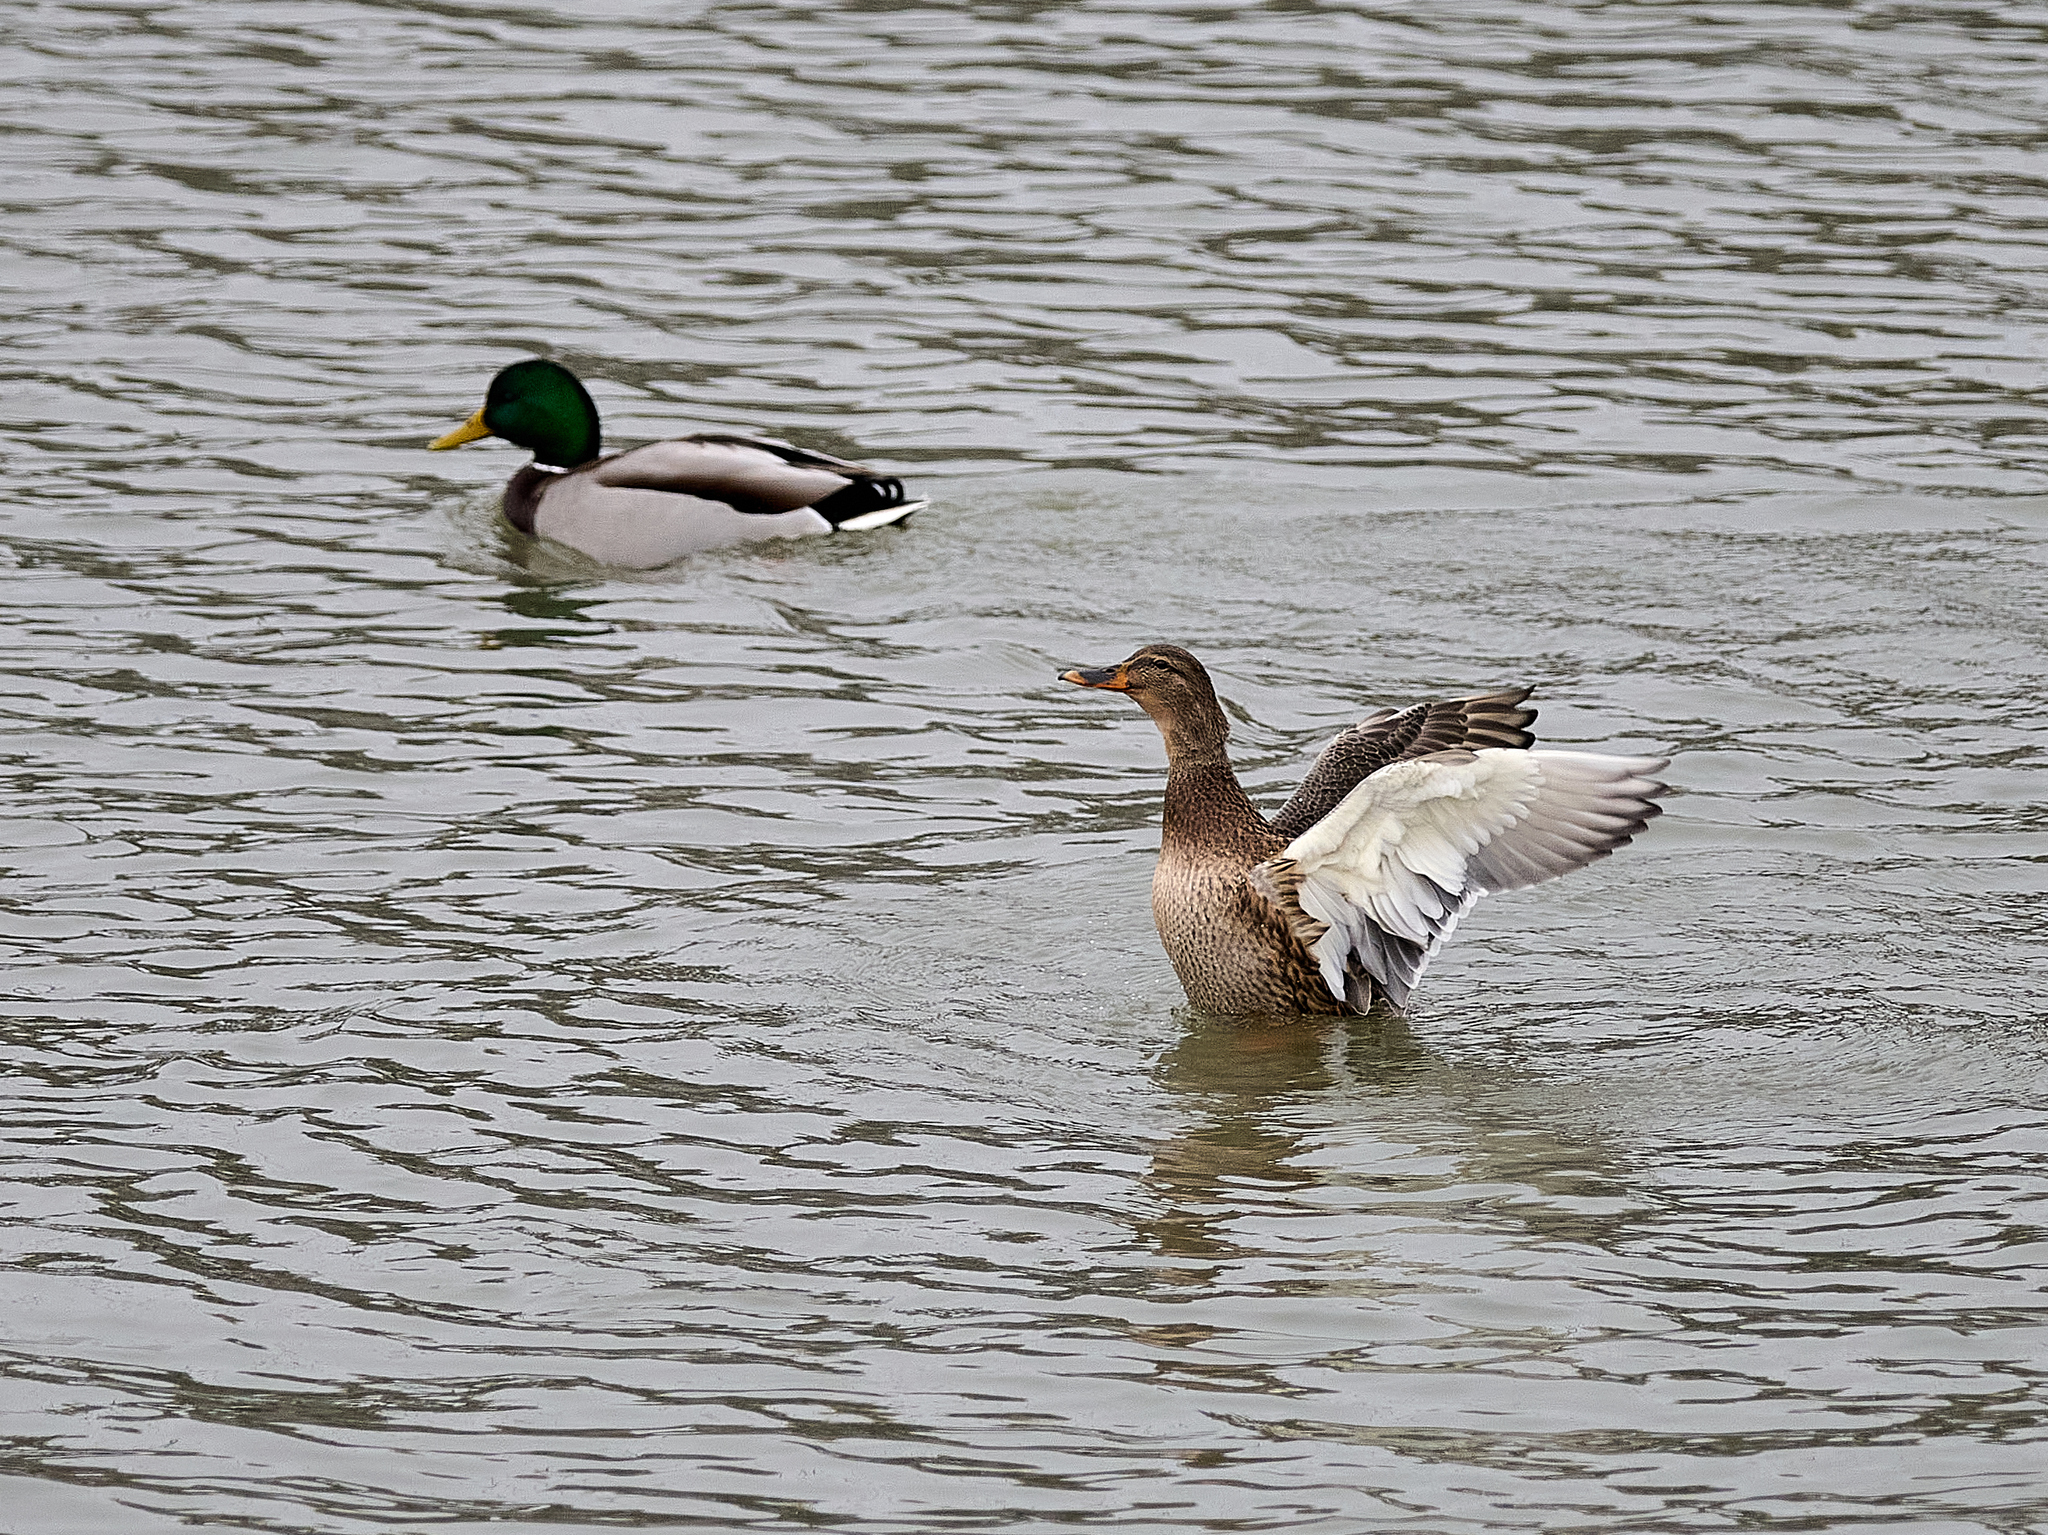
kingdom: Animalia
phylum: Chordata
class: Aves
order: Anseriformes
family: Anatidae
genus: Anas
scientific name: Anas platyrhynchos
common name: Mallard
